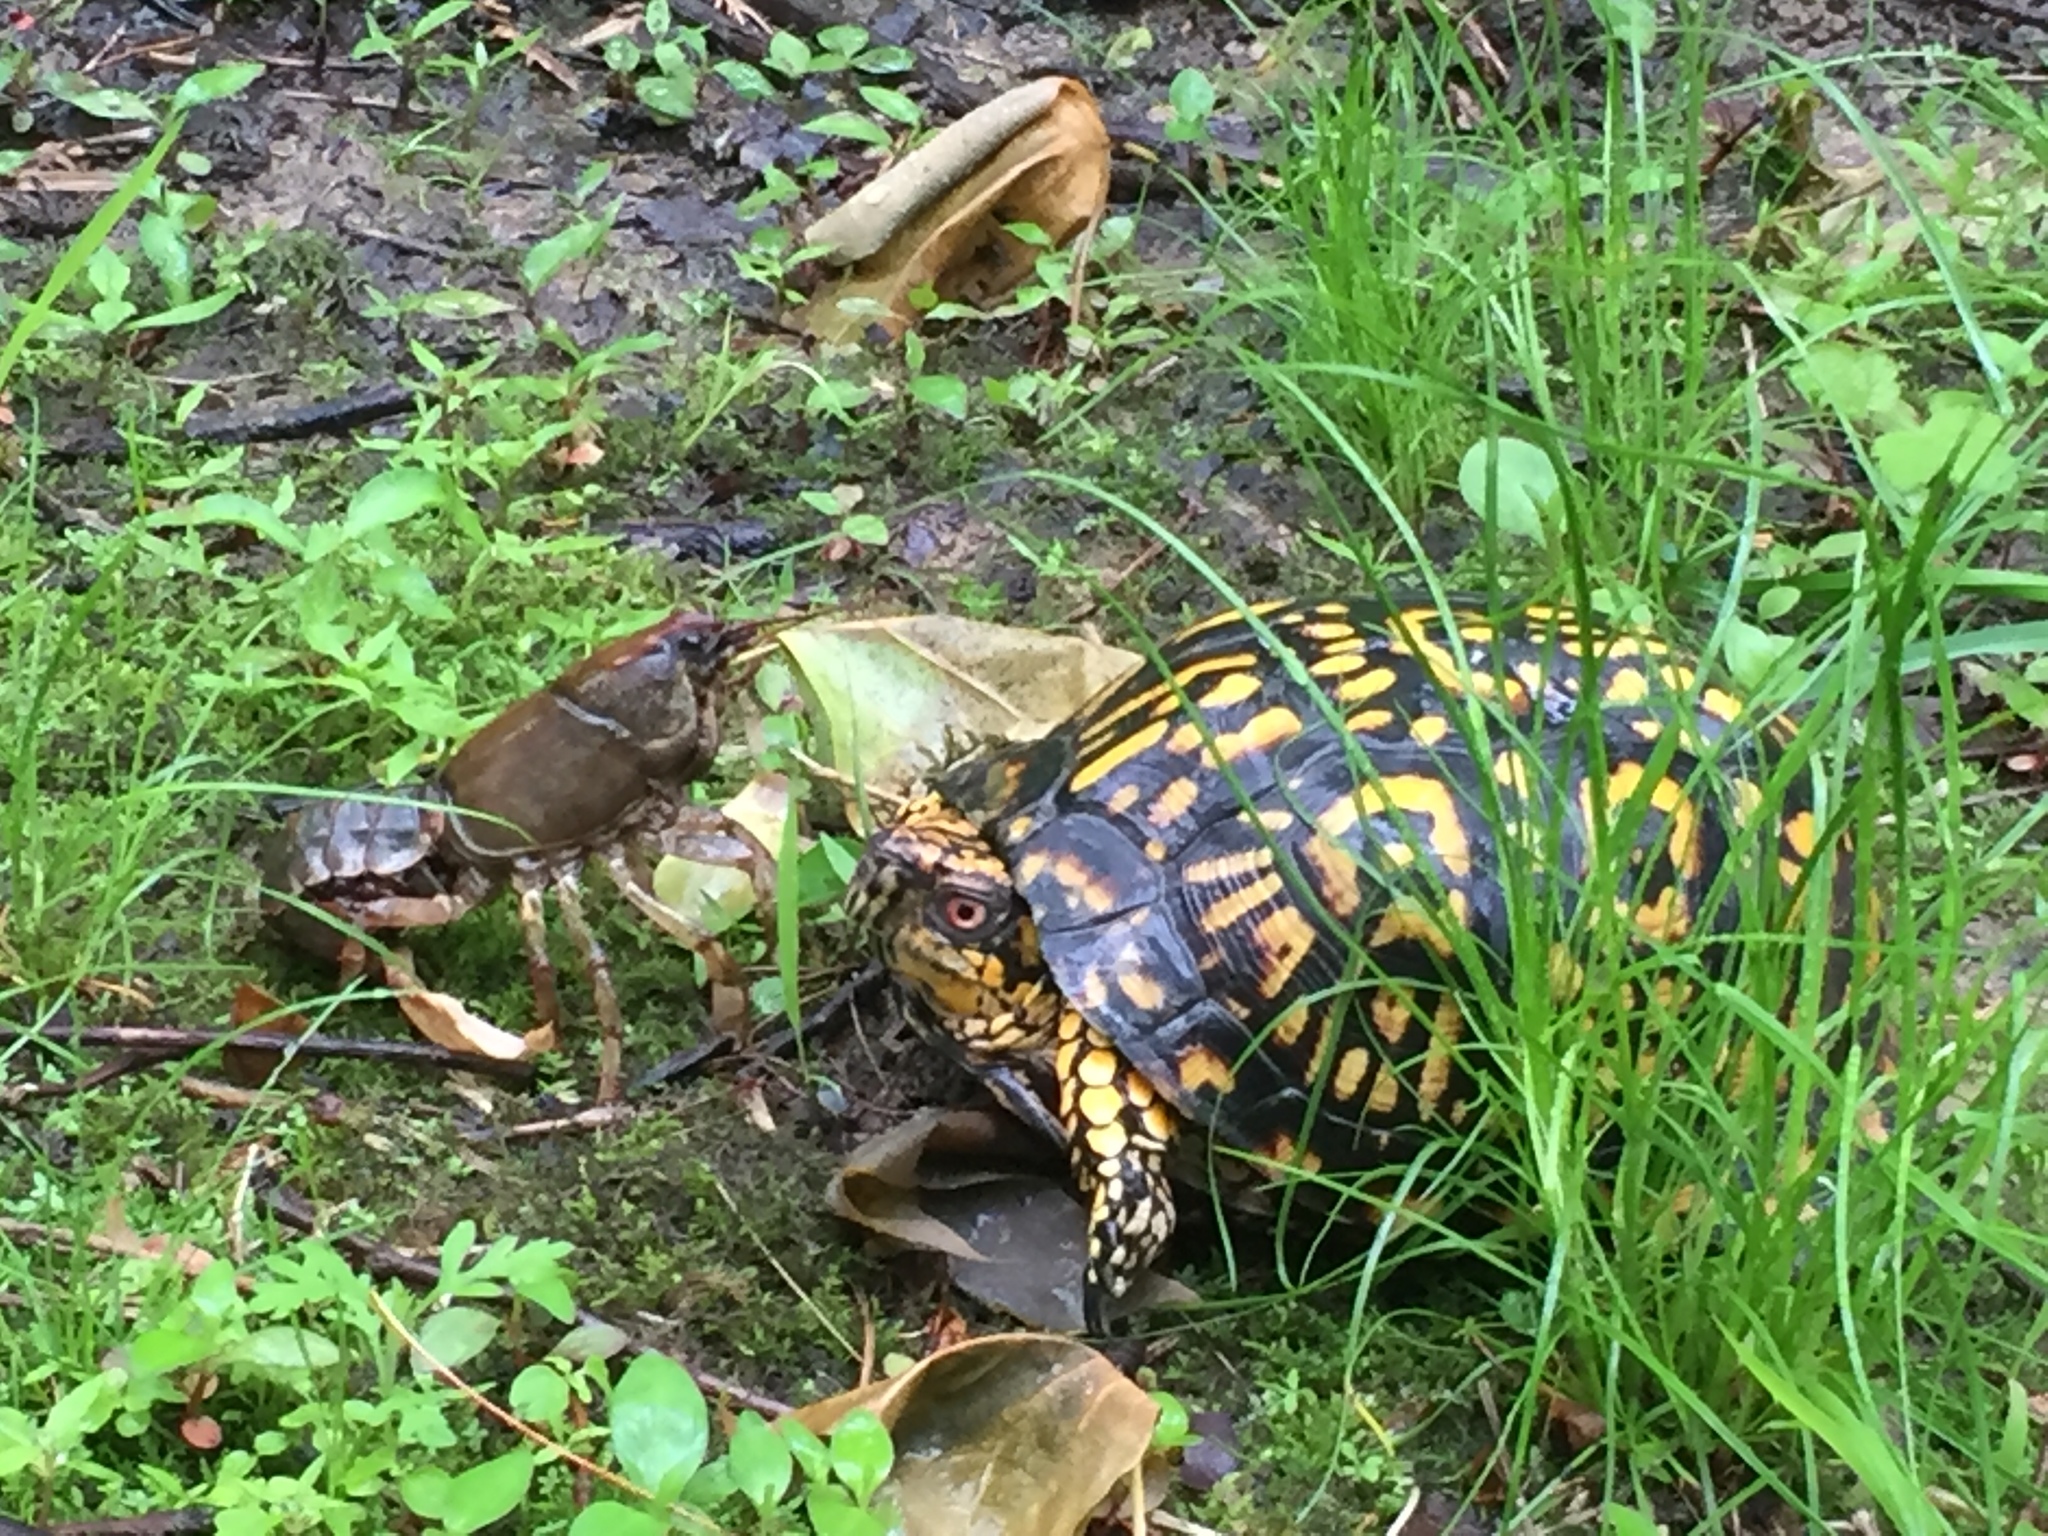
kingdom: Animalia
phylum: Chordata
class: Testudines
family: Emydidae
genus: Terrapene
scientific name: Terrapene carolina
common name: Common box turtle
